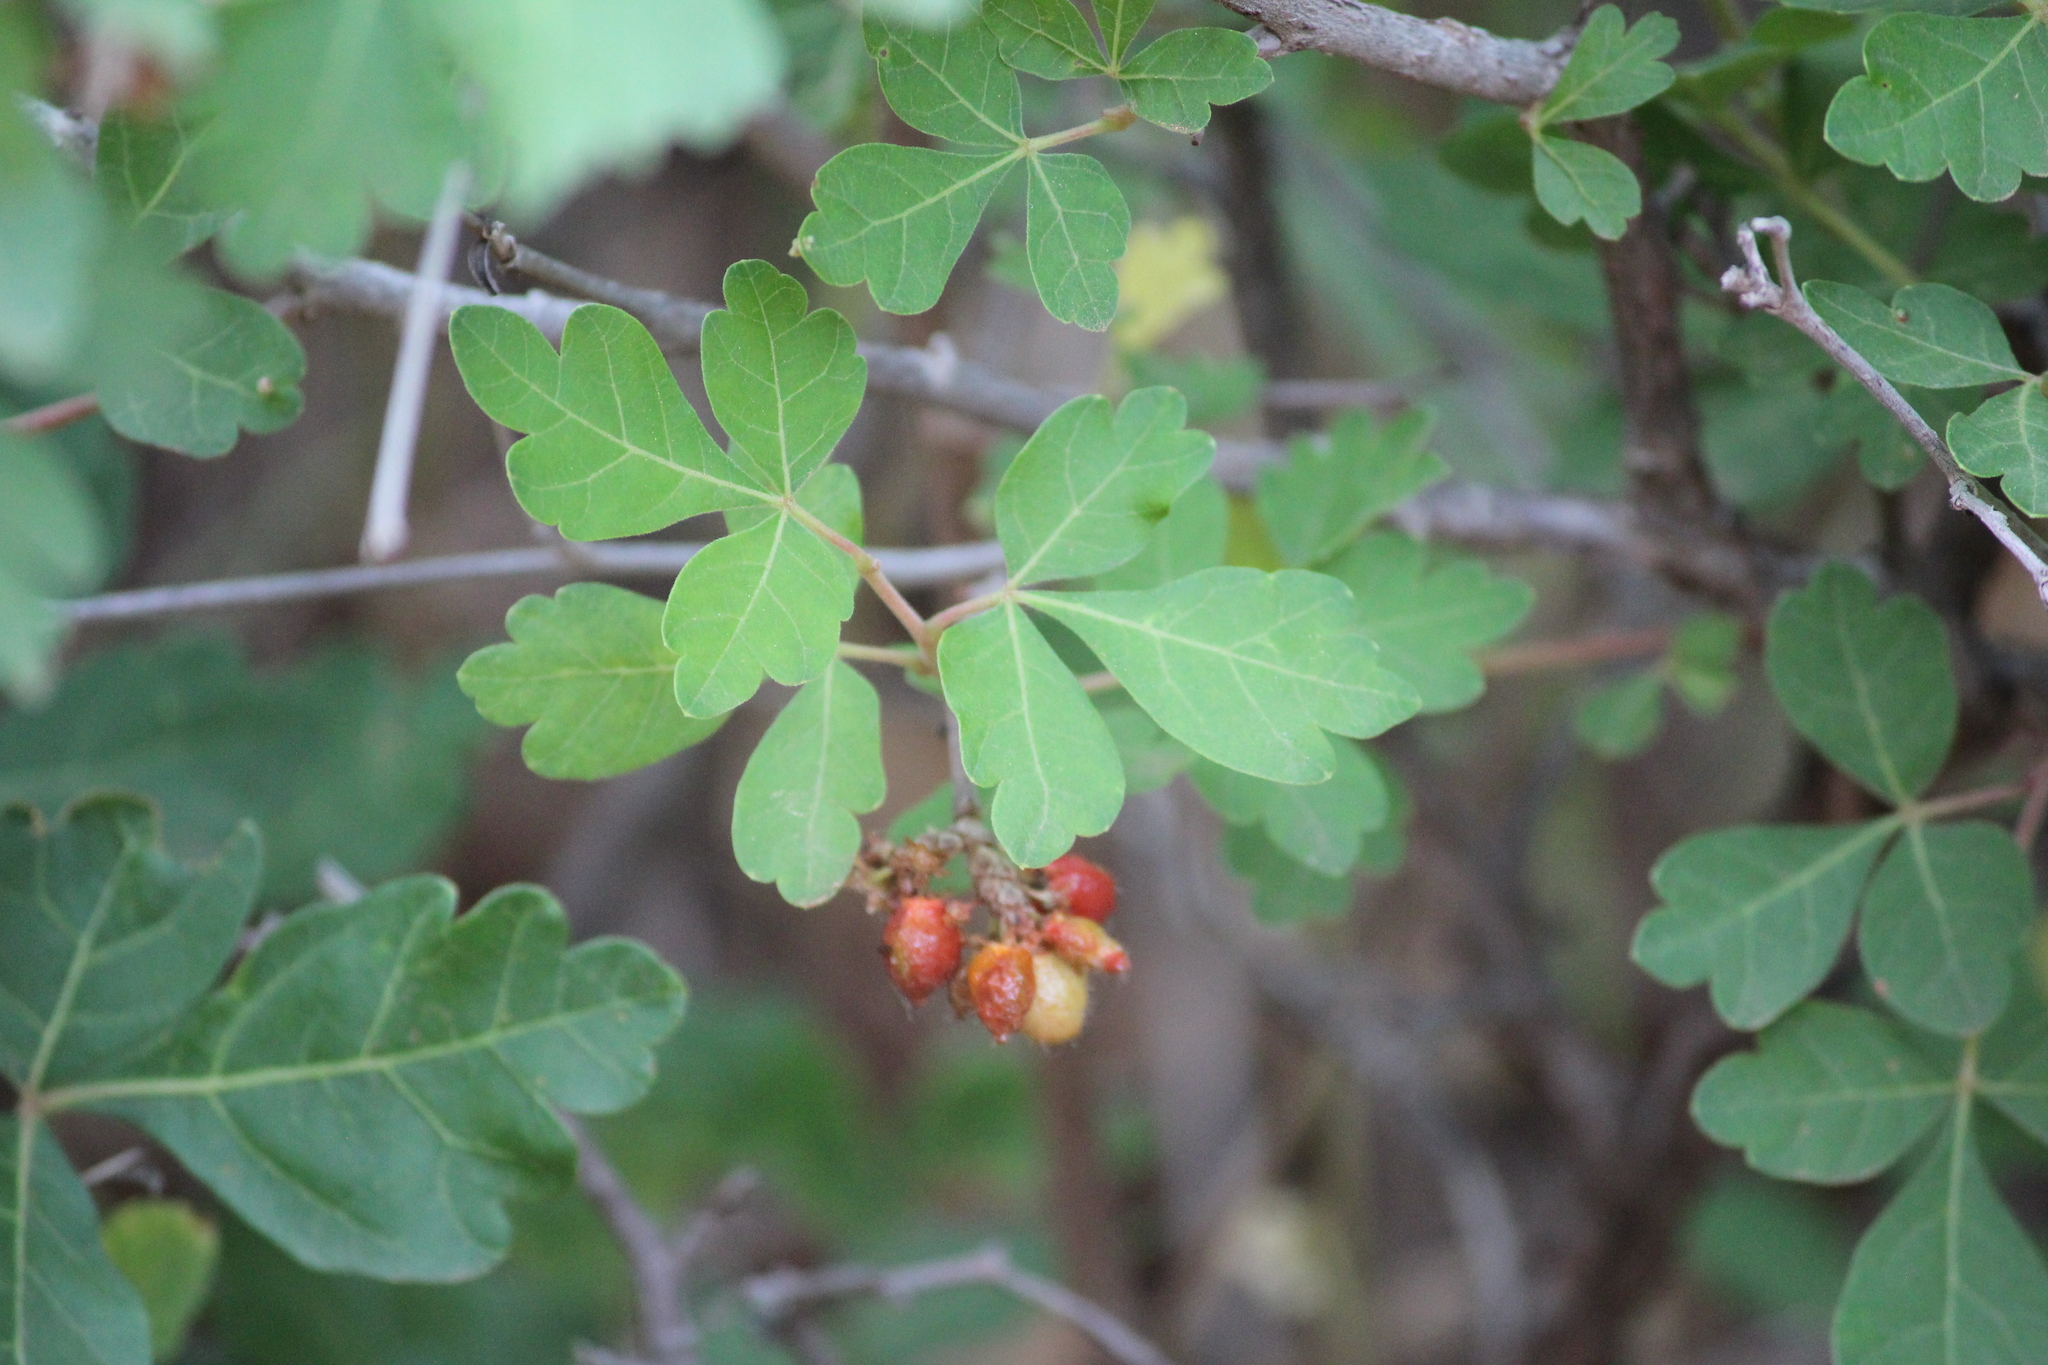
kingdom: Plantae
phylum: Tracheophyta
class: Magnoliopsida
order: Sapindales
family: Anacardiaceae
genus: Rhus
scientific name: Rhus aromatica
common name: Aromatic sumac
